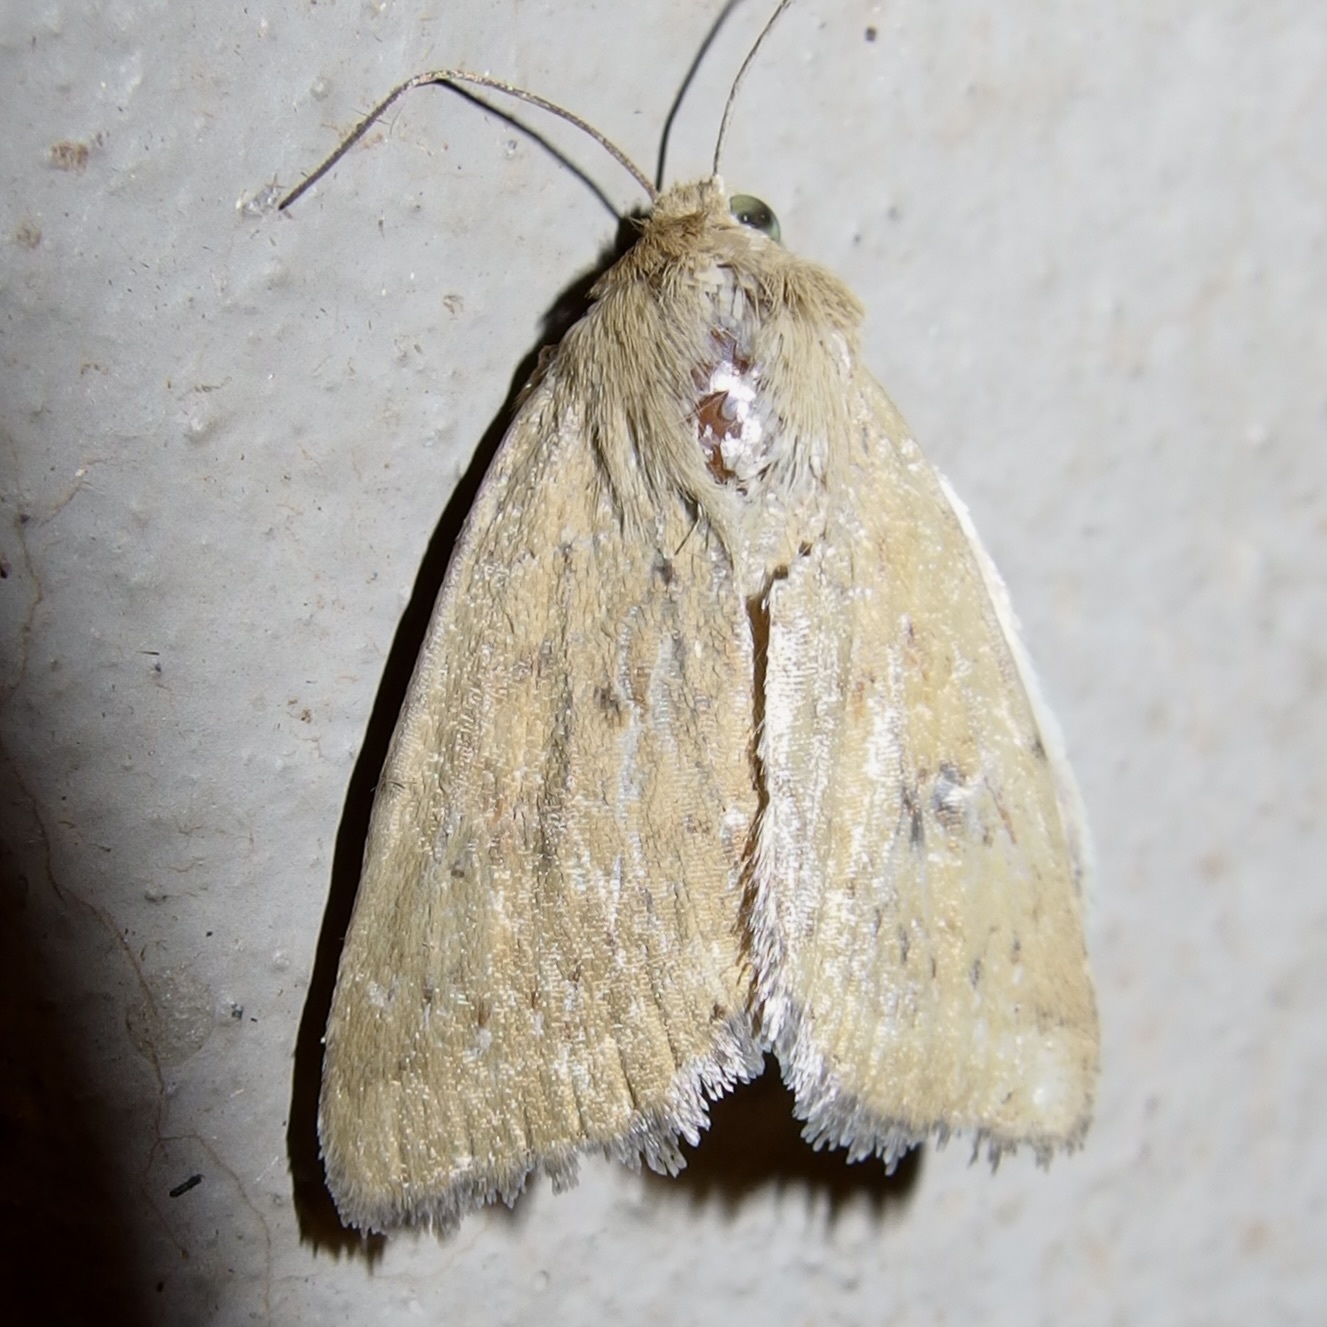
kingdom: Animalia
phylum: Arthropoda
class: Insecta
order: Lepidoptera
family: Noctuidae
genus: Heliocheilus
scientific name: Heliocheilus paradoxus
